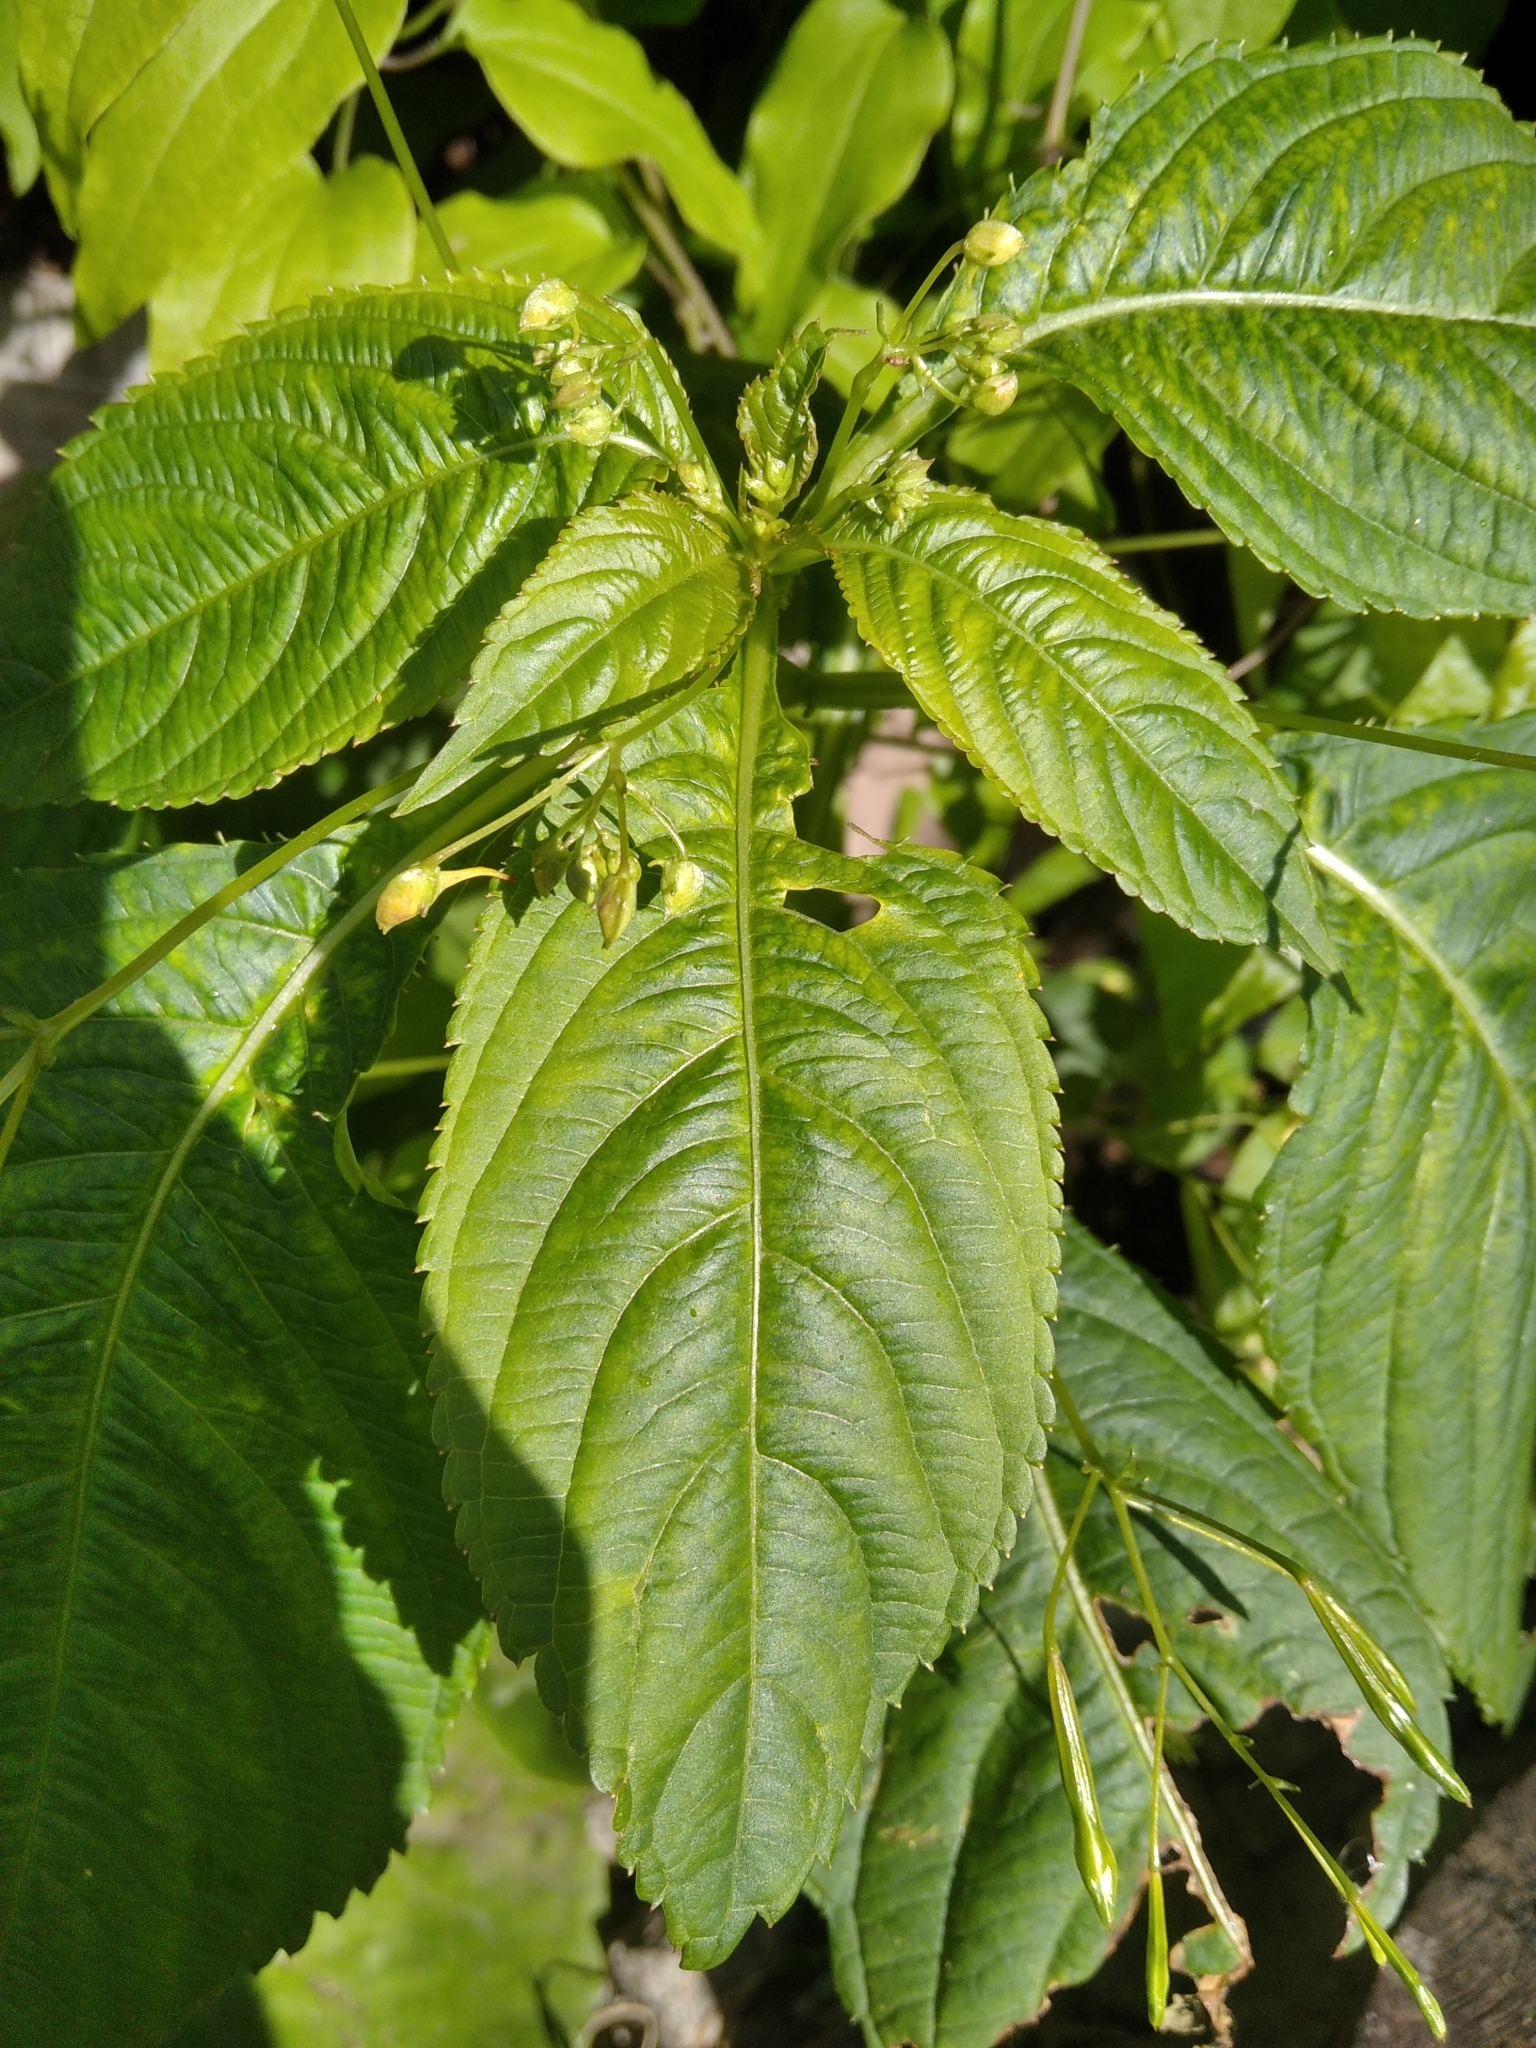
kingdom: Plantae
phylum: Tracheophyta
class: Magnoliopsida
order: Ericales
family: Balsaminaceae
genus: Impatiens
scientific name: Impatiens parviflora
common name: Small balsam
